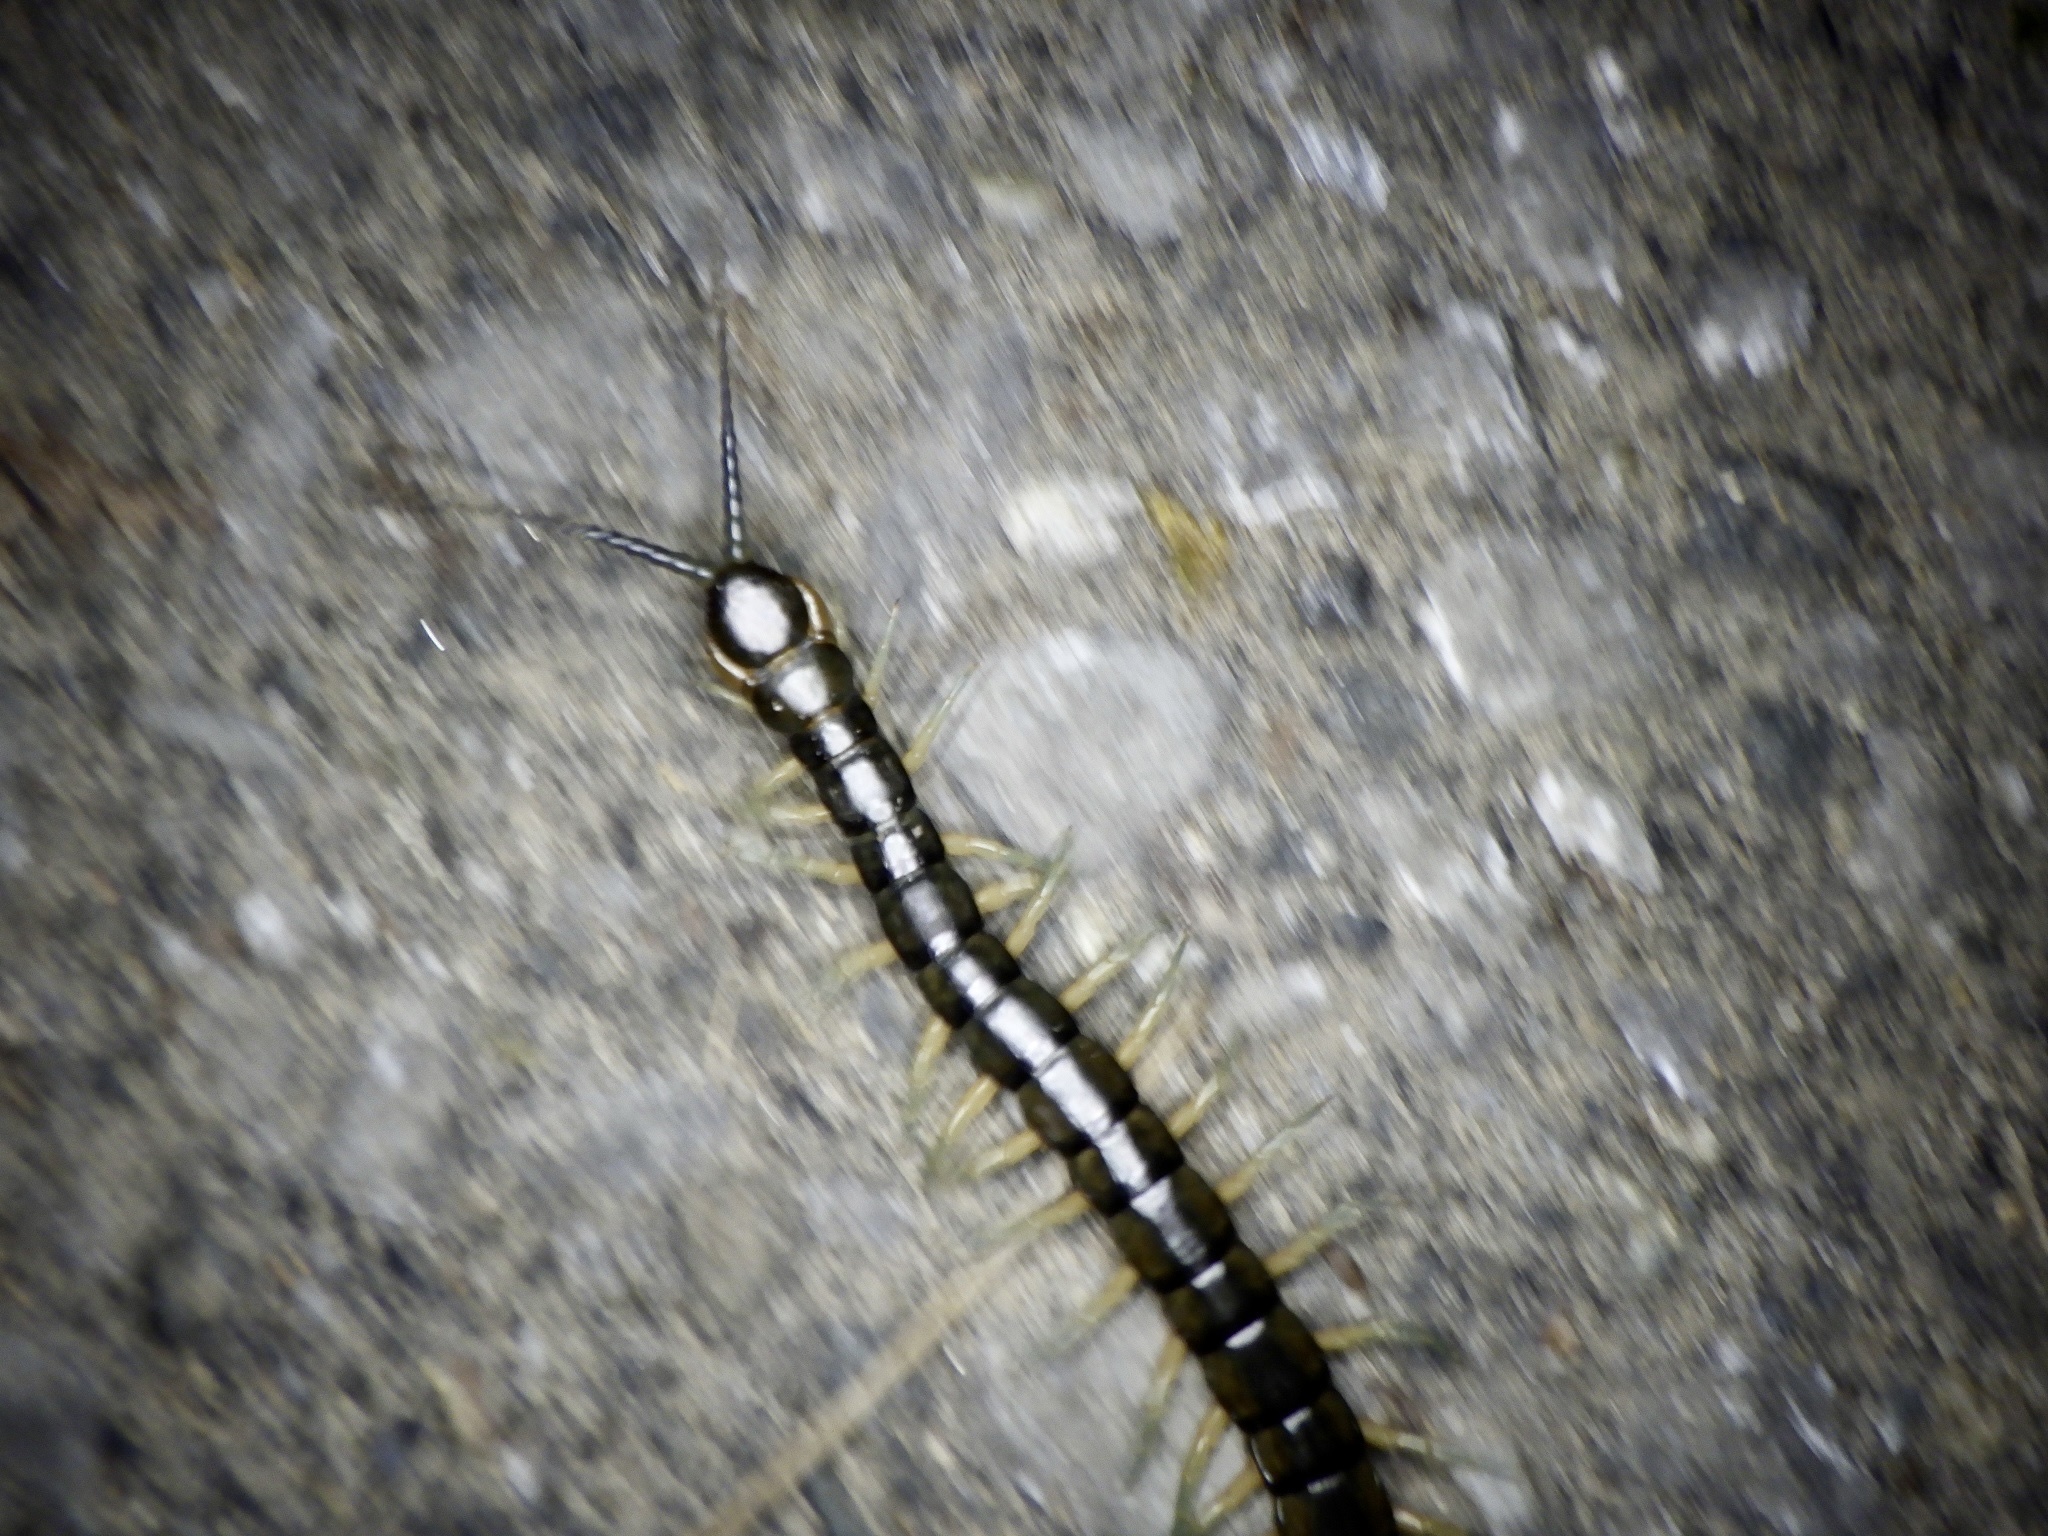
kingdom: Animalia
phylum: Arthropoda
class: Chilopoda
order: Scolopendromorpha
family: Scolopendridae
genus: Scolopendra
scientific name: Scolopendra japonica
